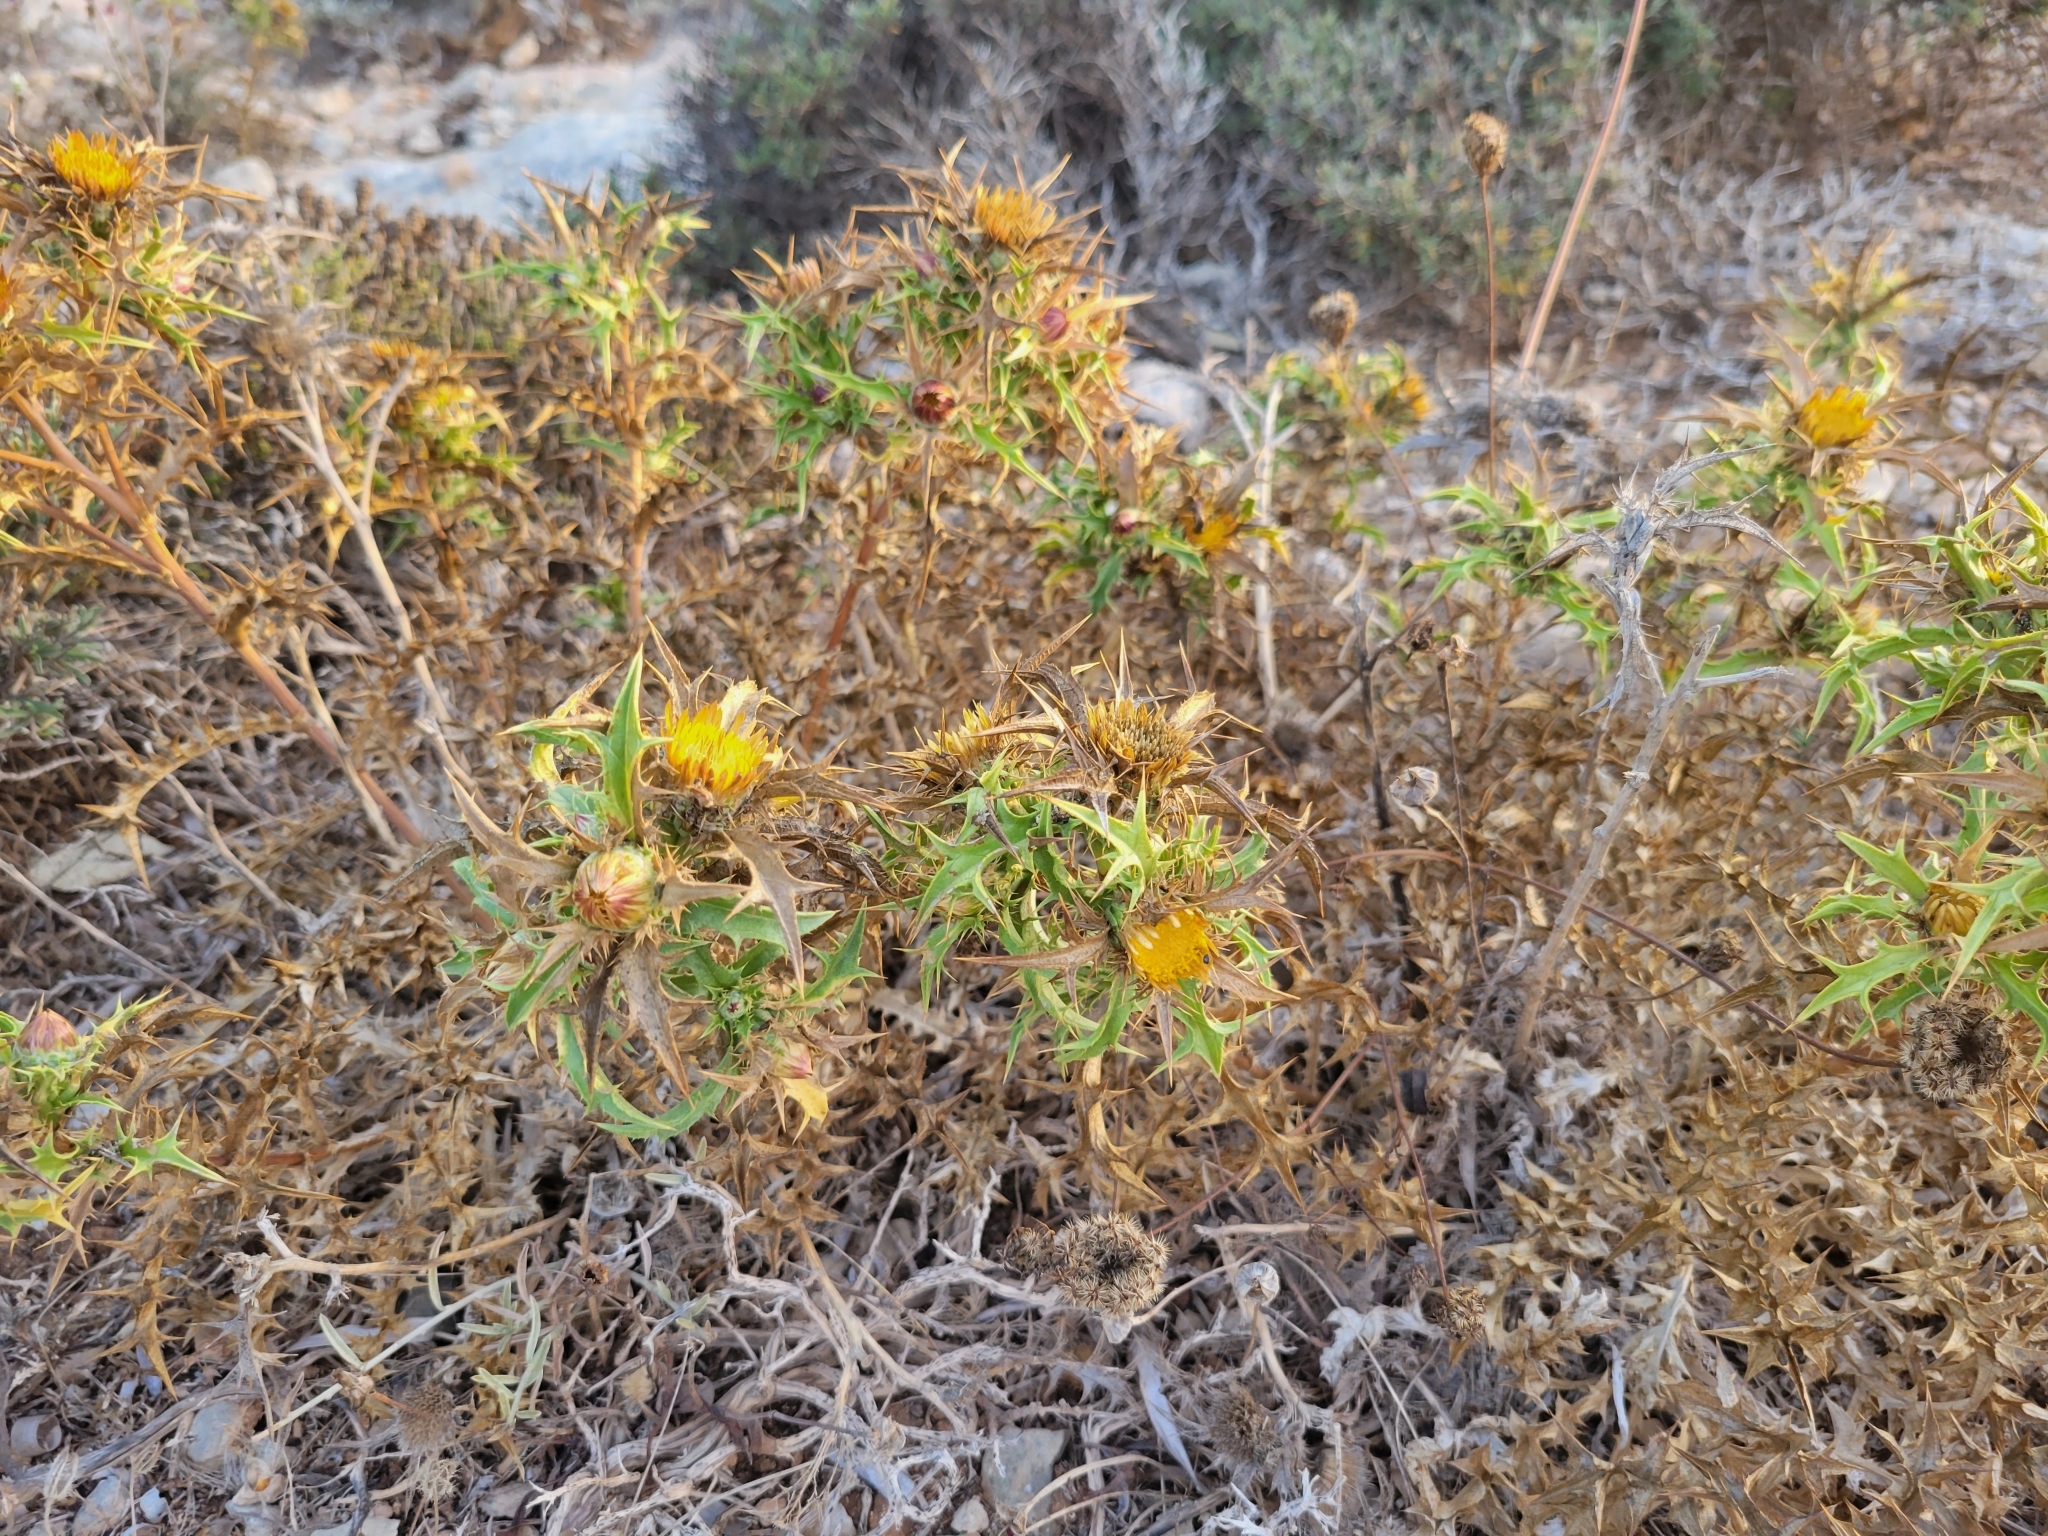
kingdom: Plantae
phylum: Tracheophyta
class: Magnoliopsida
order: Asterales
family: Asteraceae
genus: Carlina
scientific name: Carlina involucrata
